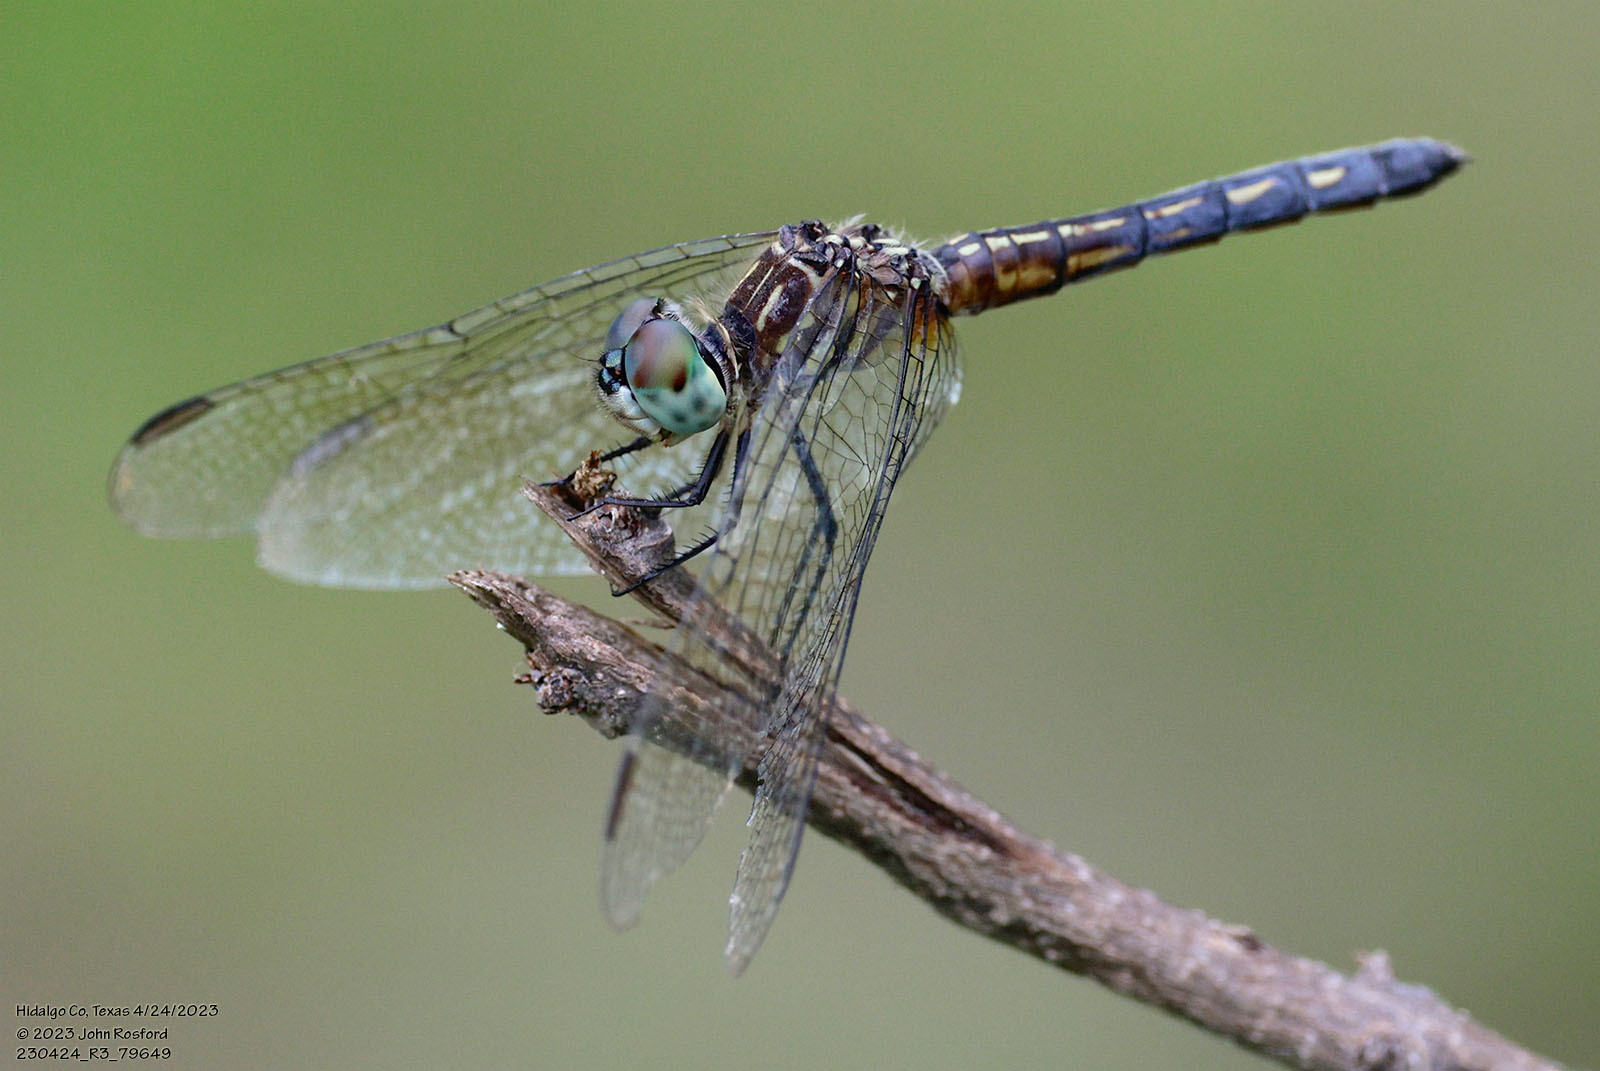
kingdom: Animalia
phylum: Arthropoda
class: Insecta
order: Odonata
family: Libellulidae
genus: Pachydiplax
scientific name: Pachydiplax longipennis
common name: Blue dasher
